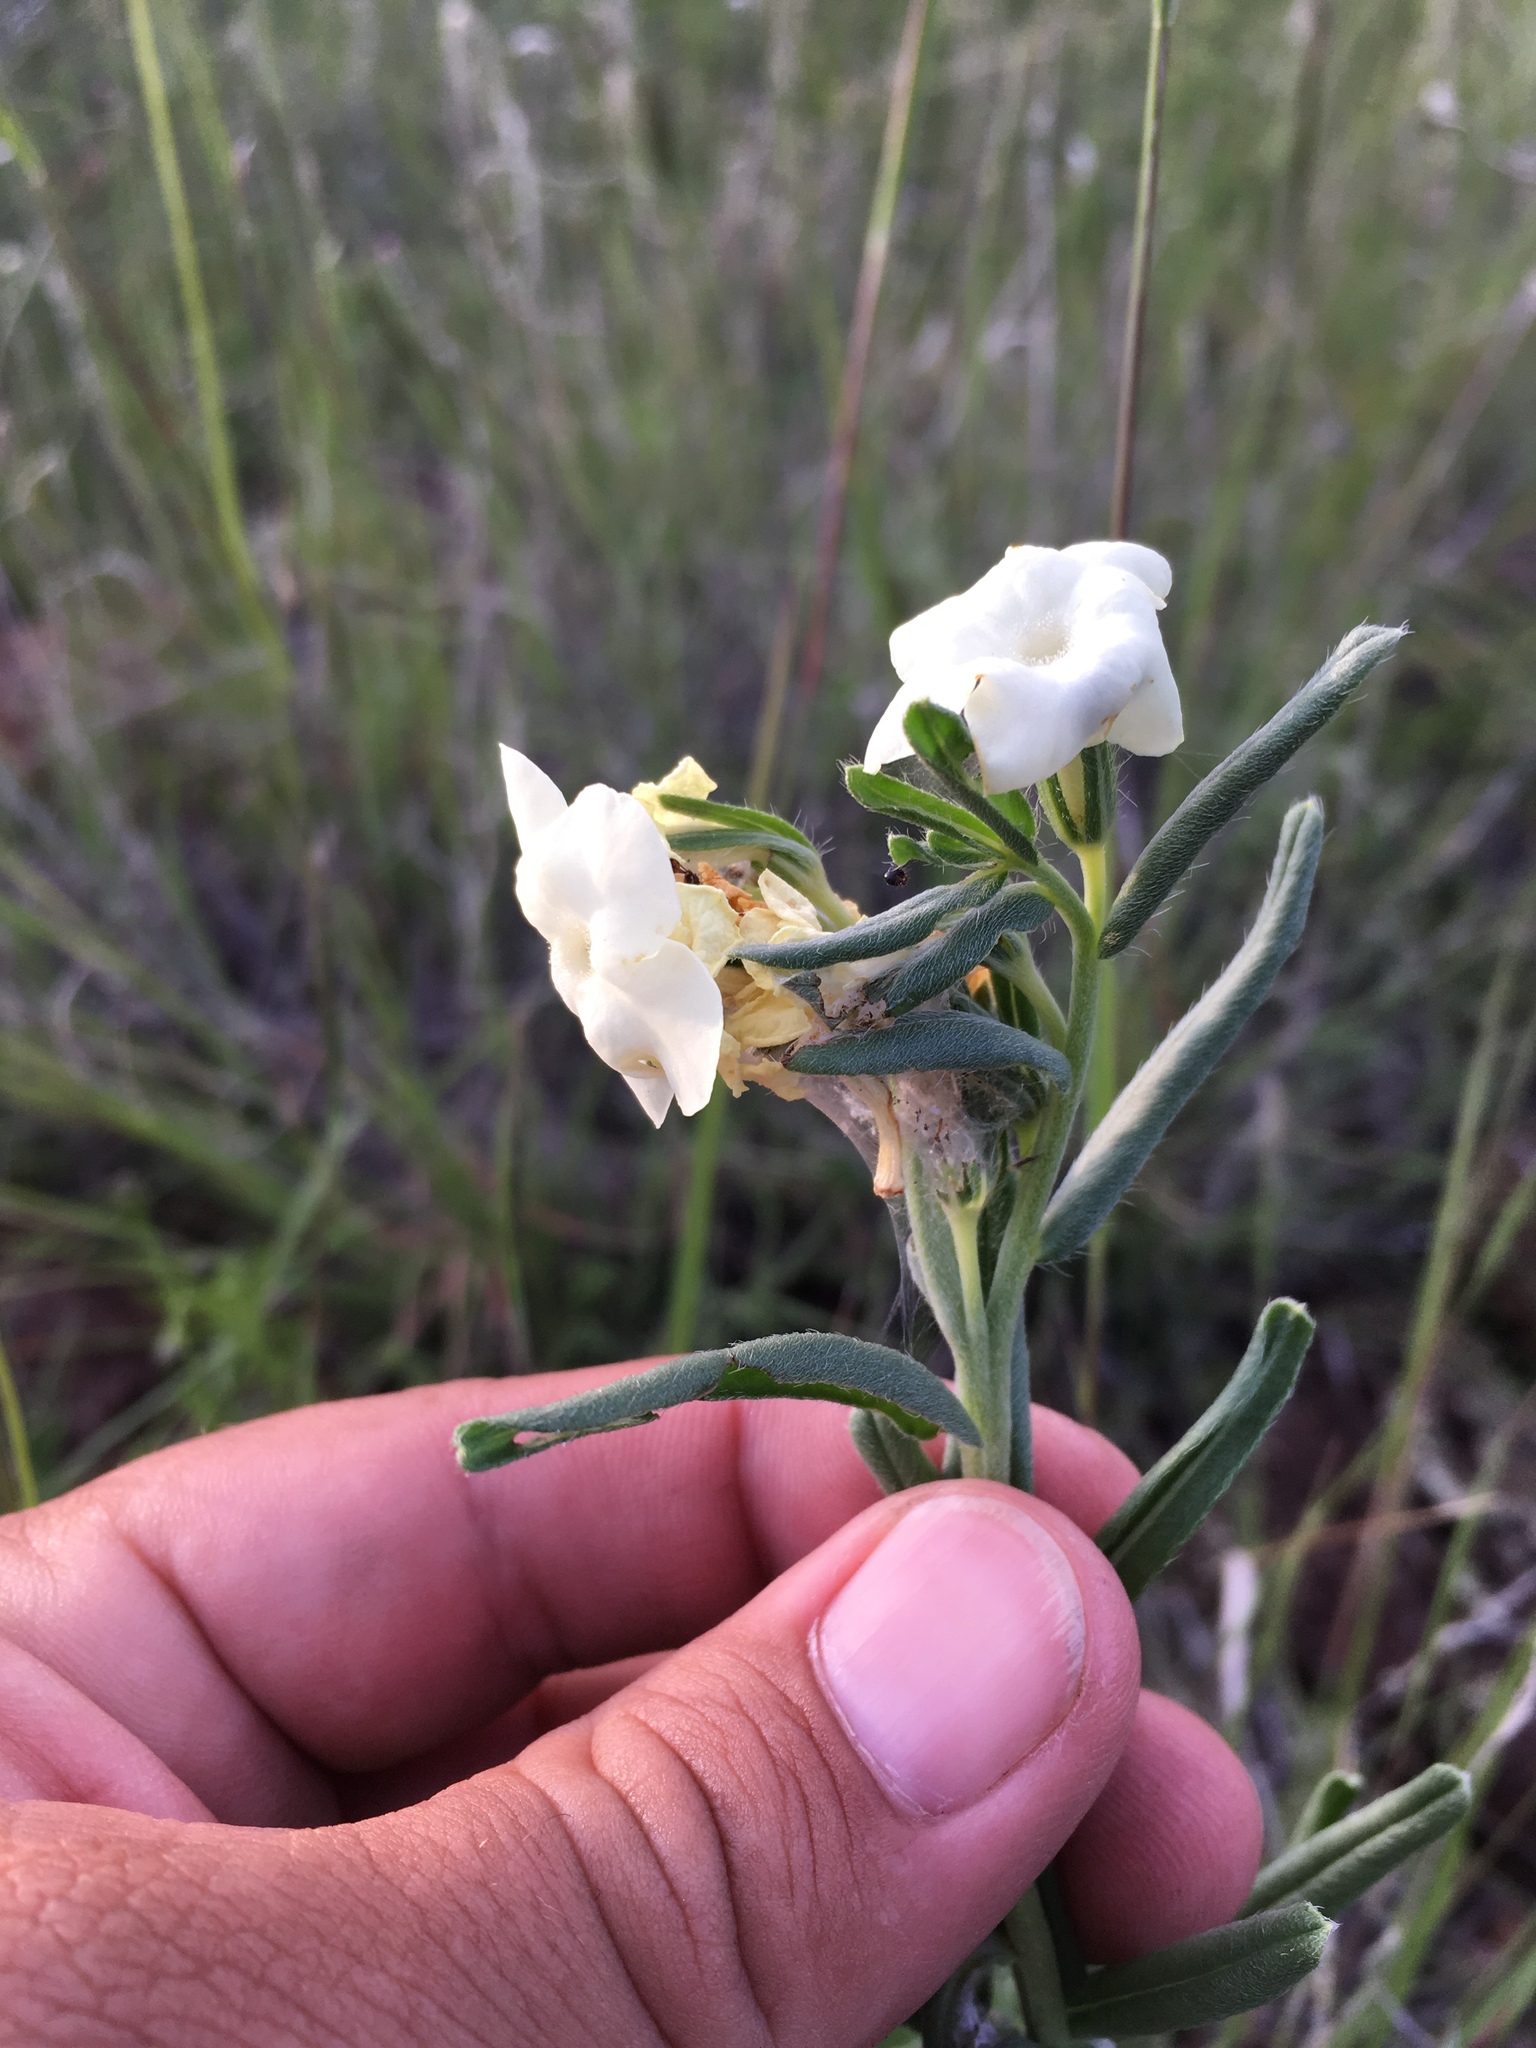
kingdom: Plantae
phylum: Tracheophyta
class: Magnoliopsida
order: Boraginales
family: Boraginaceae
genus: Lithospermum
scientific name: Lithospermum cobrense
